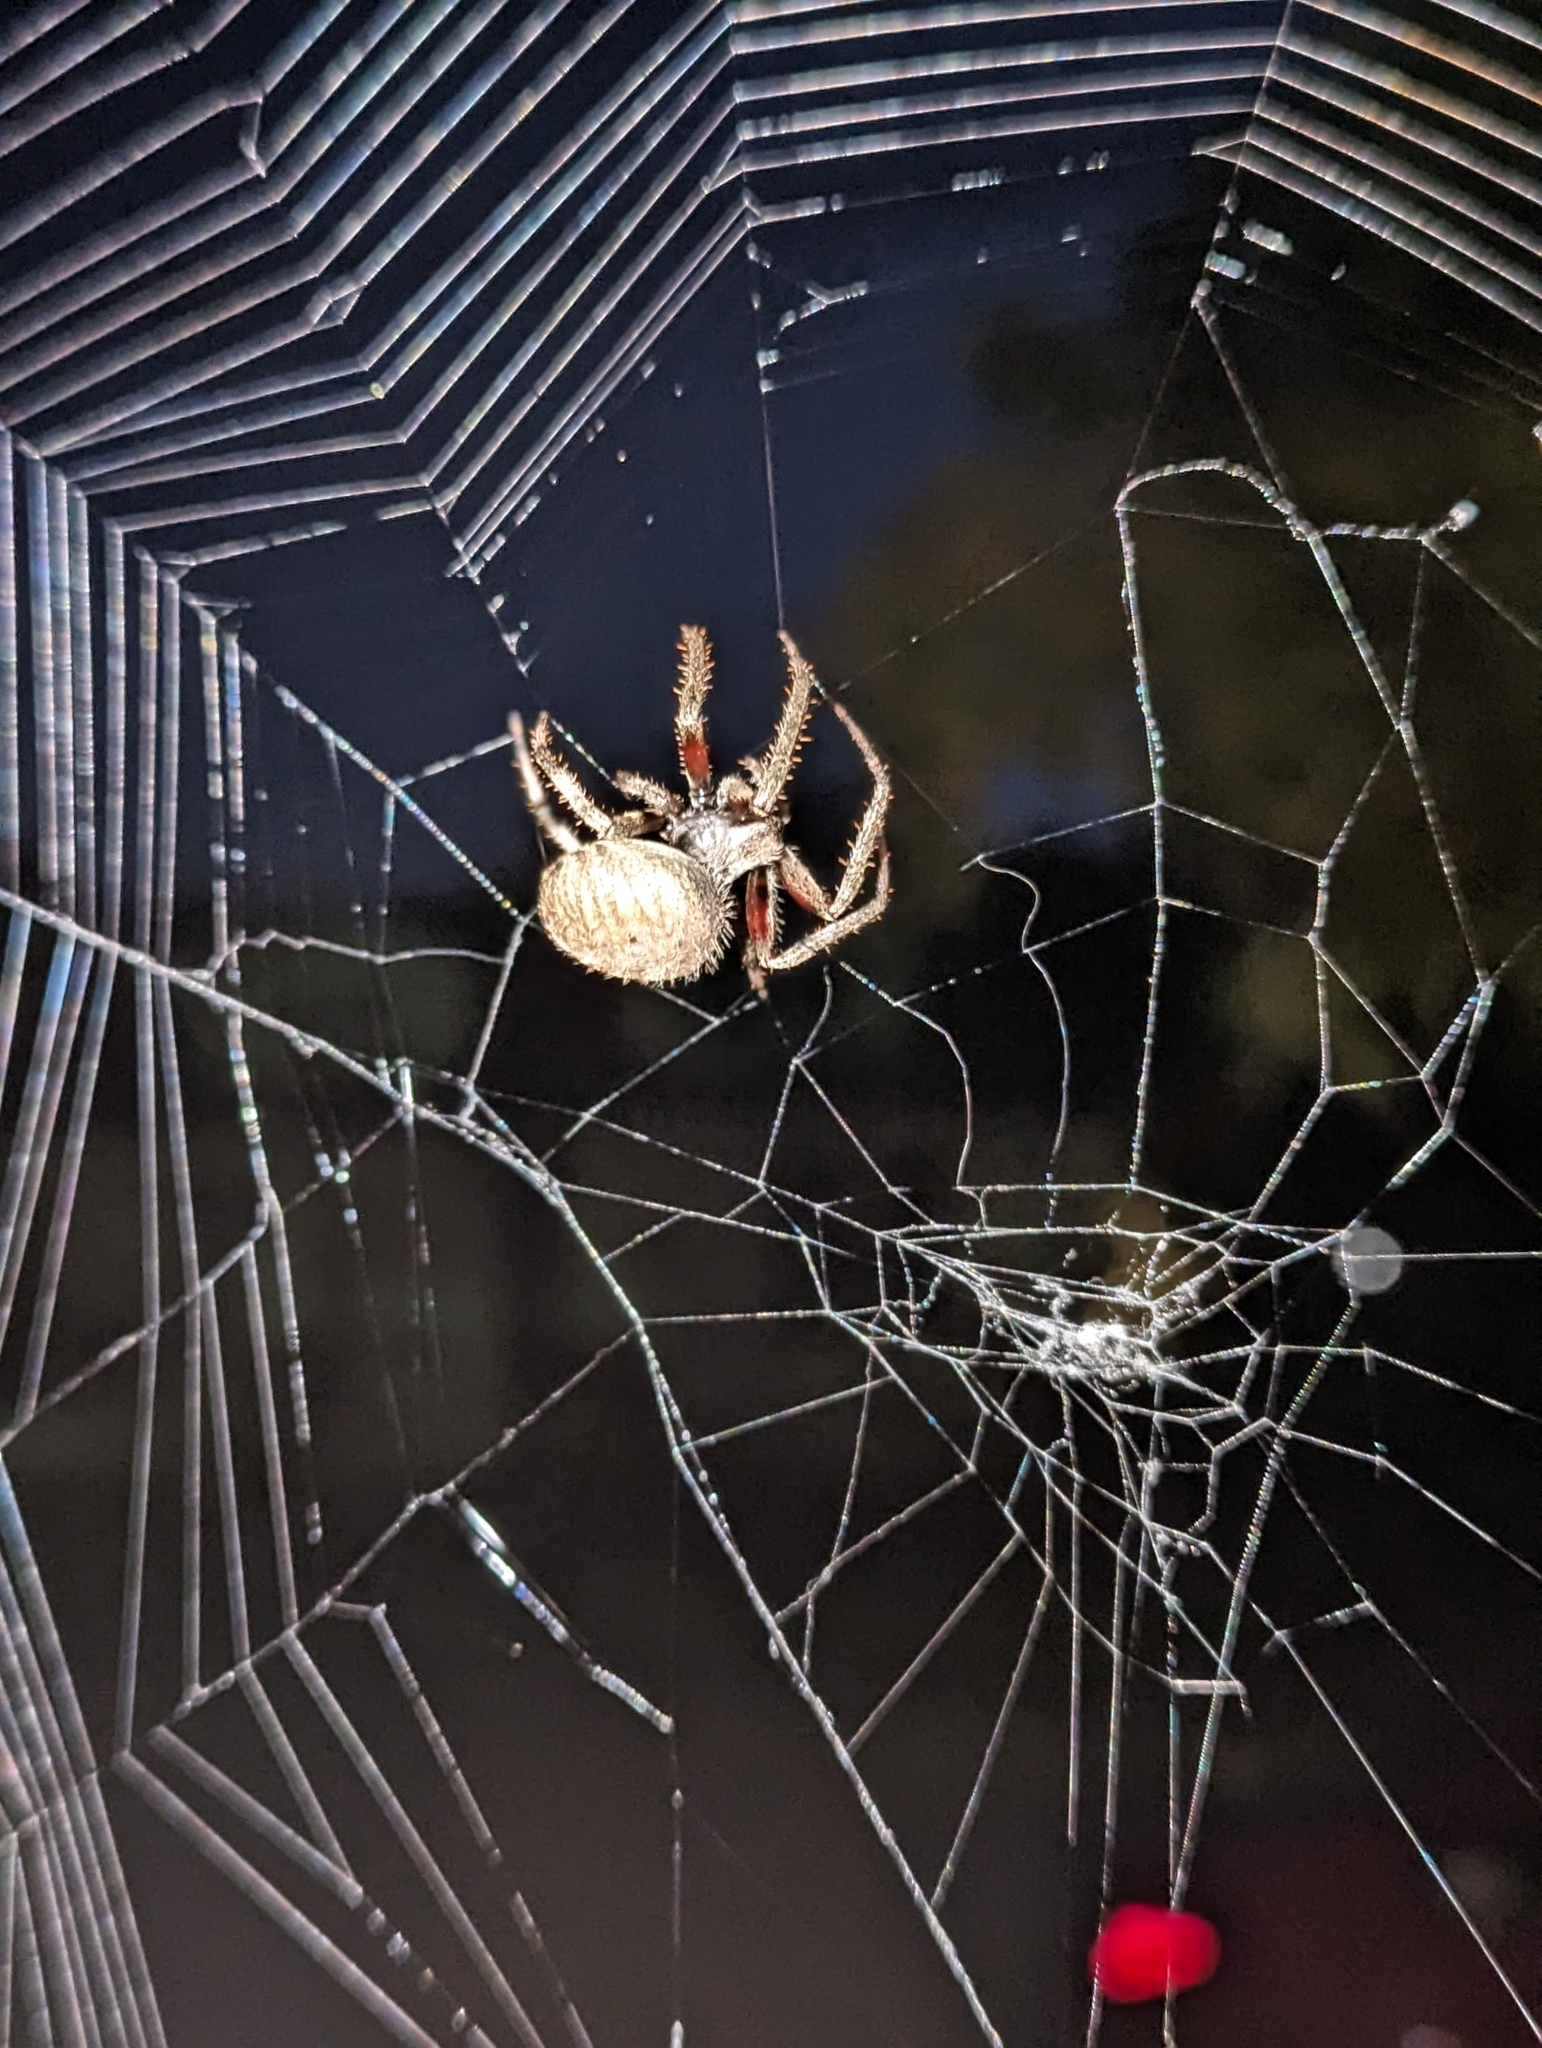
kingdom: Animalia
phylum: Arthropoda
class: Arachnida
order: Araneae
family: Araneidae
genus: Neoscona
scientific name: Neoscona crucifera
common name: Spotted orbweaver
